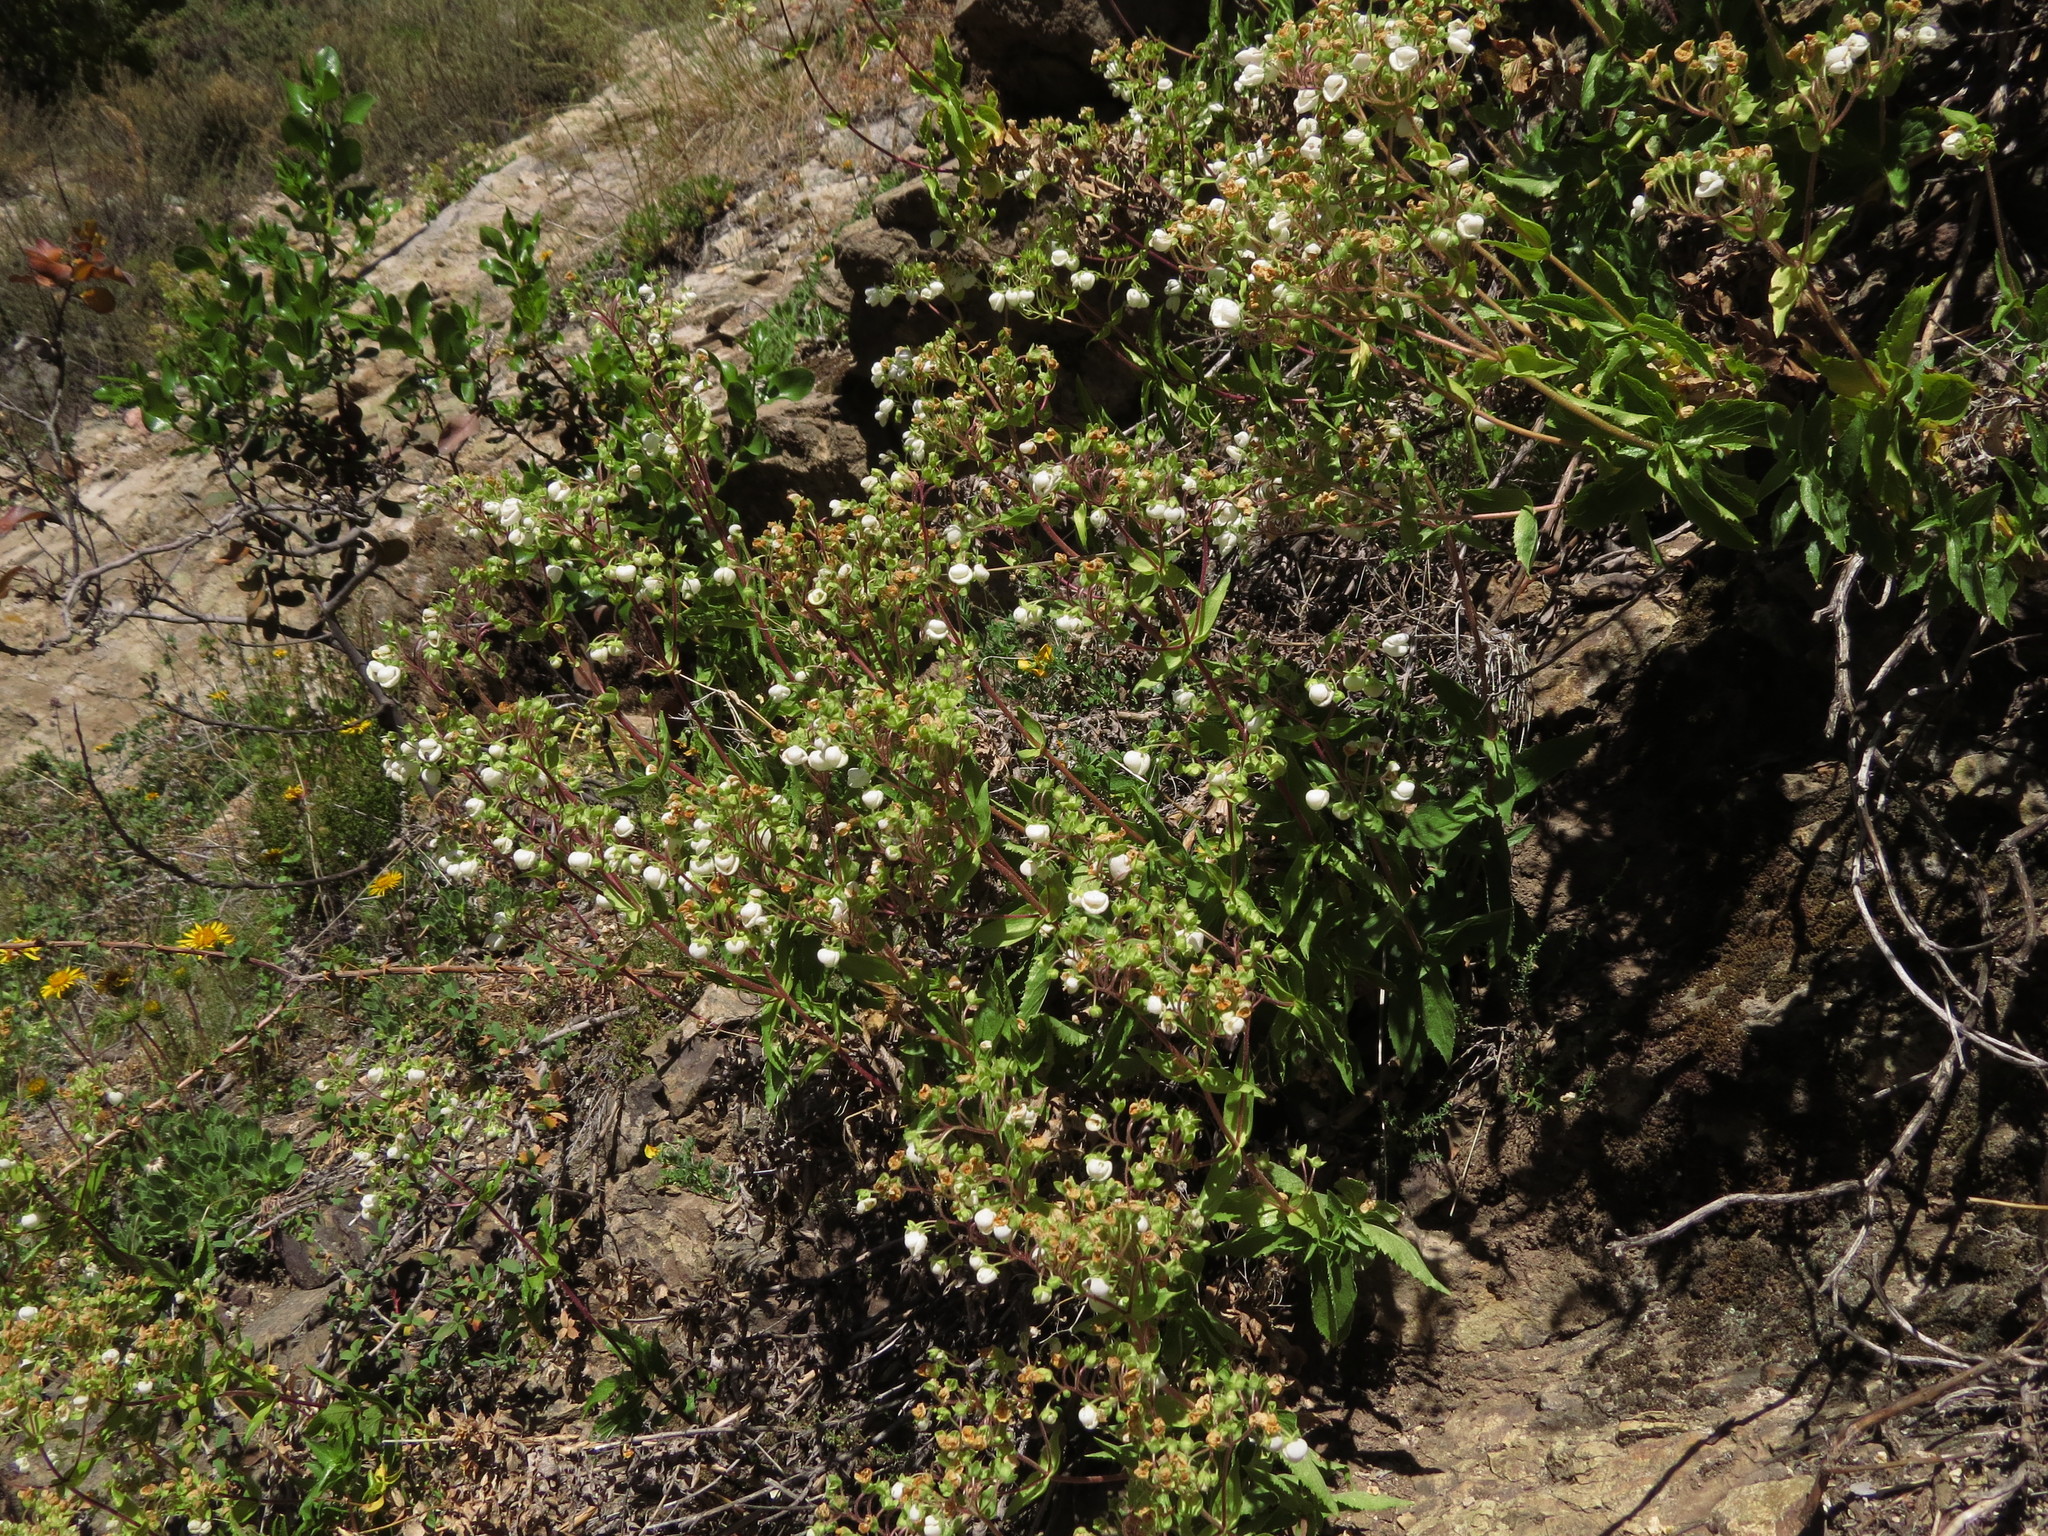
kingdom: Plantae
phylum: Tracheophyta
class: Magnoliopsida
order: Lamiales
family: Calceolariaceae
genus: Calceolaria
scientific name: Calceolaria nitida
